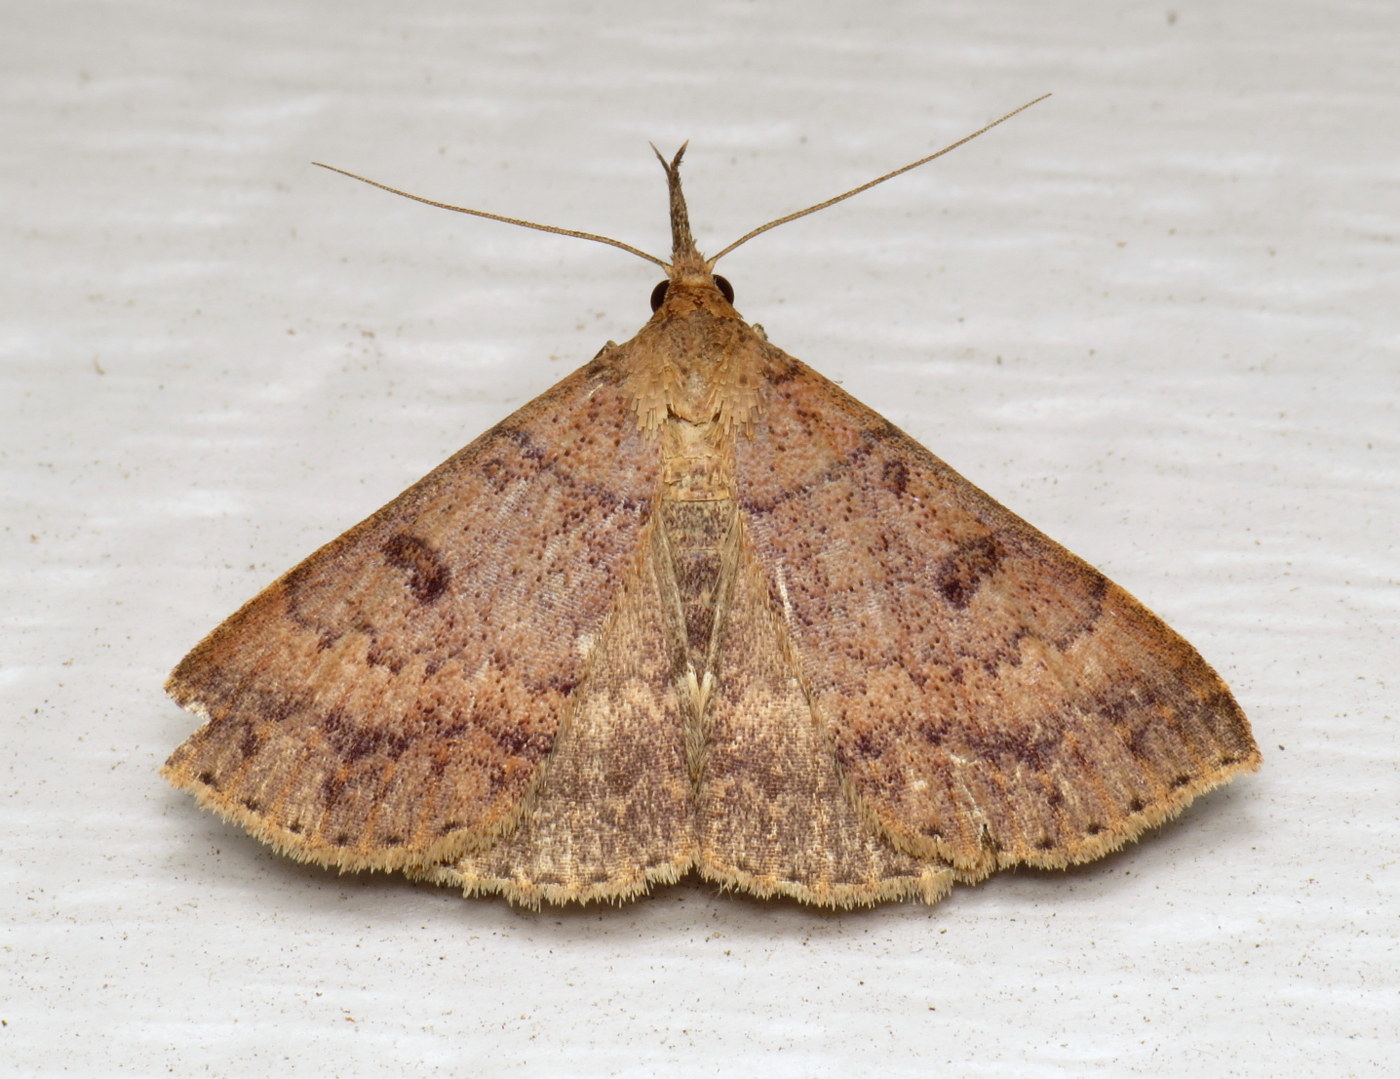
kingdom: Animalia
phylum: Arthropoda
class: Insecta
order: Lepidoptera
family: Erebidae
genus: Renia
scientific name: Renia nemoralis
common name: Chocolate renia moth
